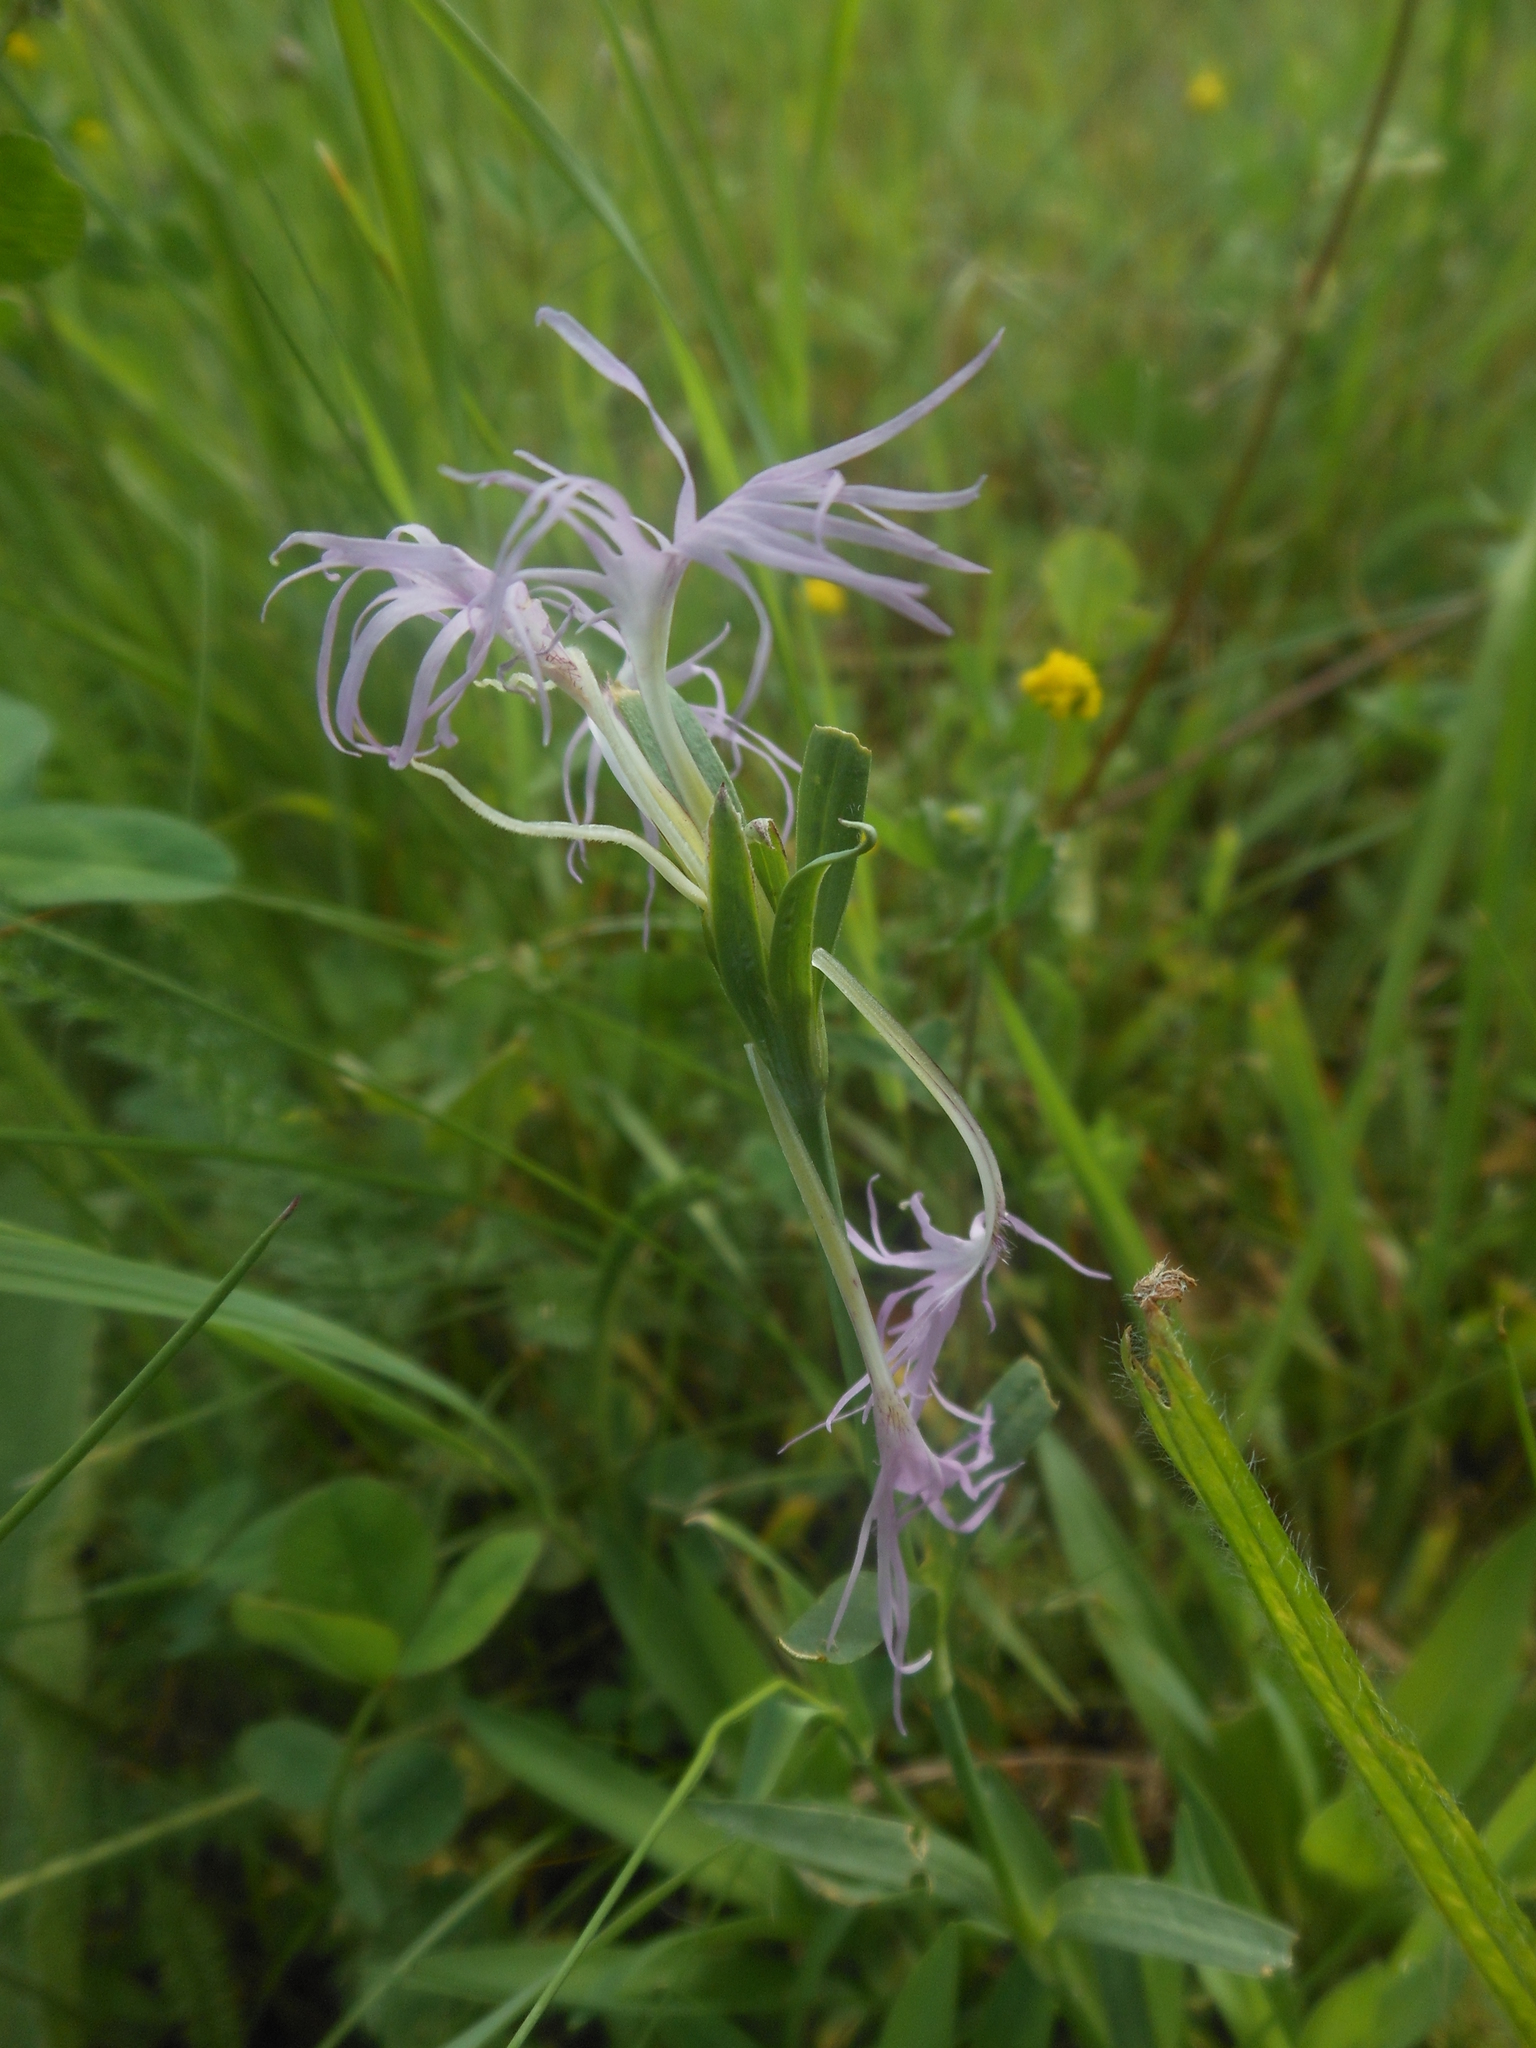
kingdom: Plantae
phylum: Tracheophyta
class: Magnoliopsida
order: Caryophyllales
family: Caryophyllaceae
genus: Dianthus
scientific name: Dianthus superbus
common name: Fringed pink
